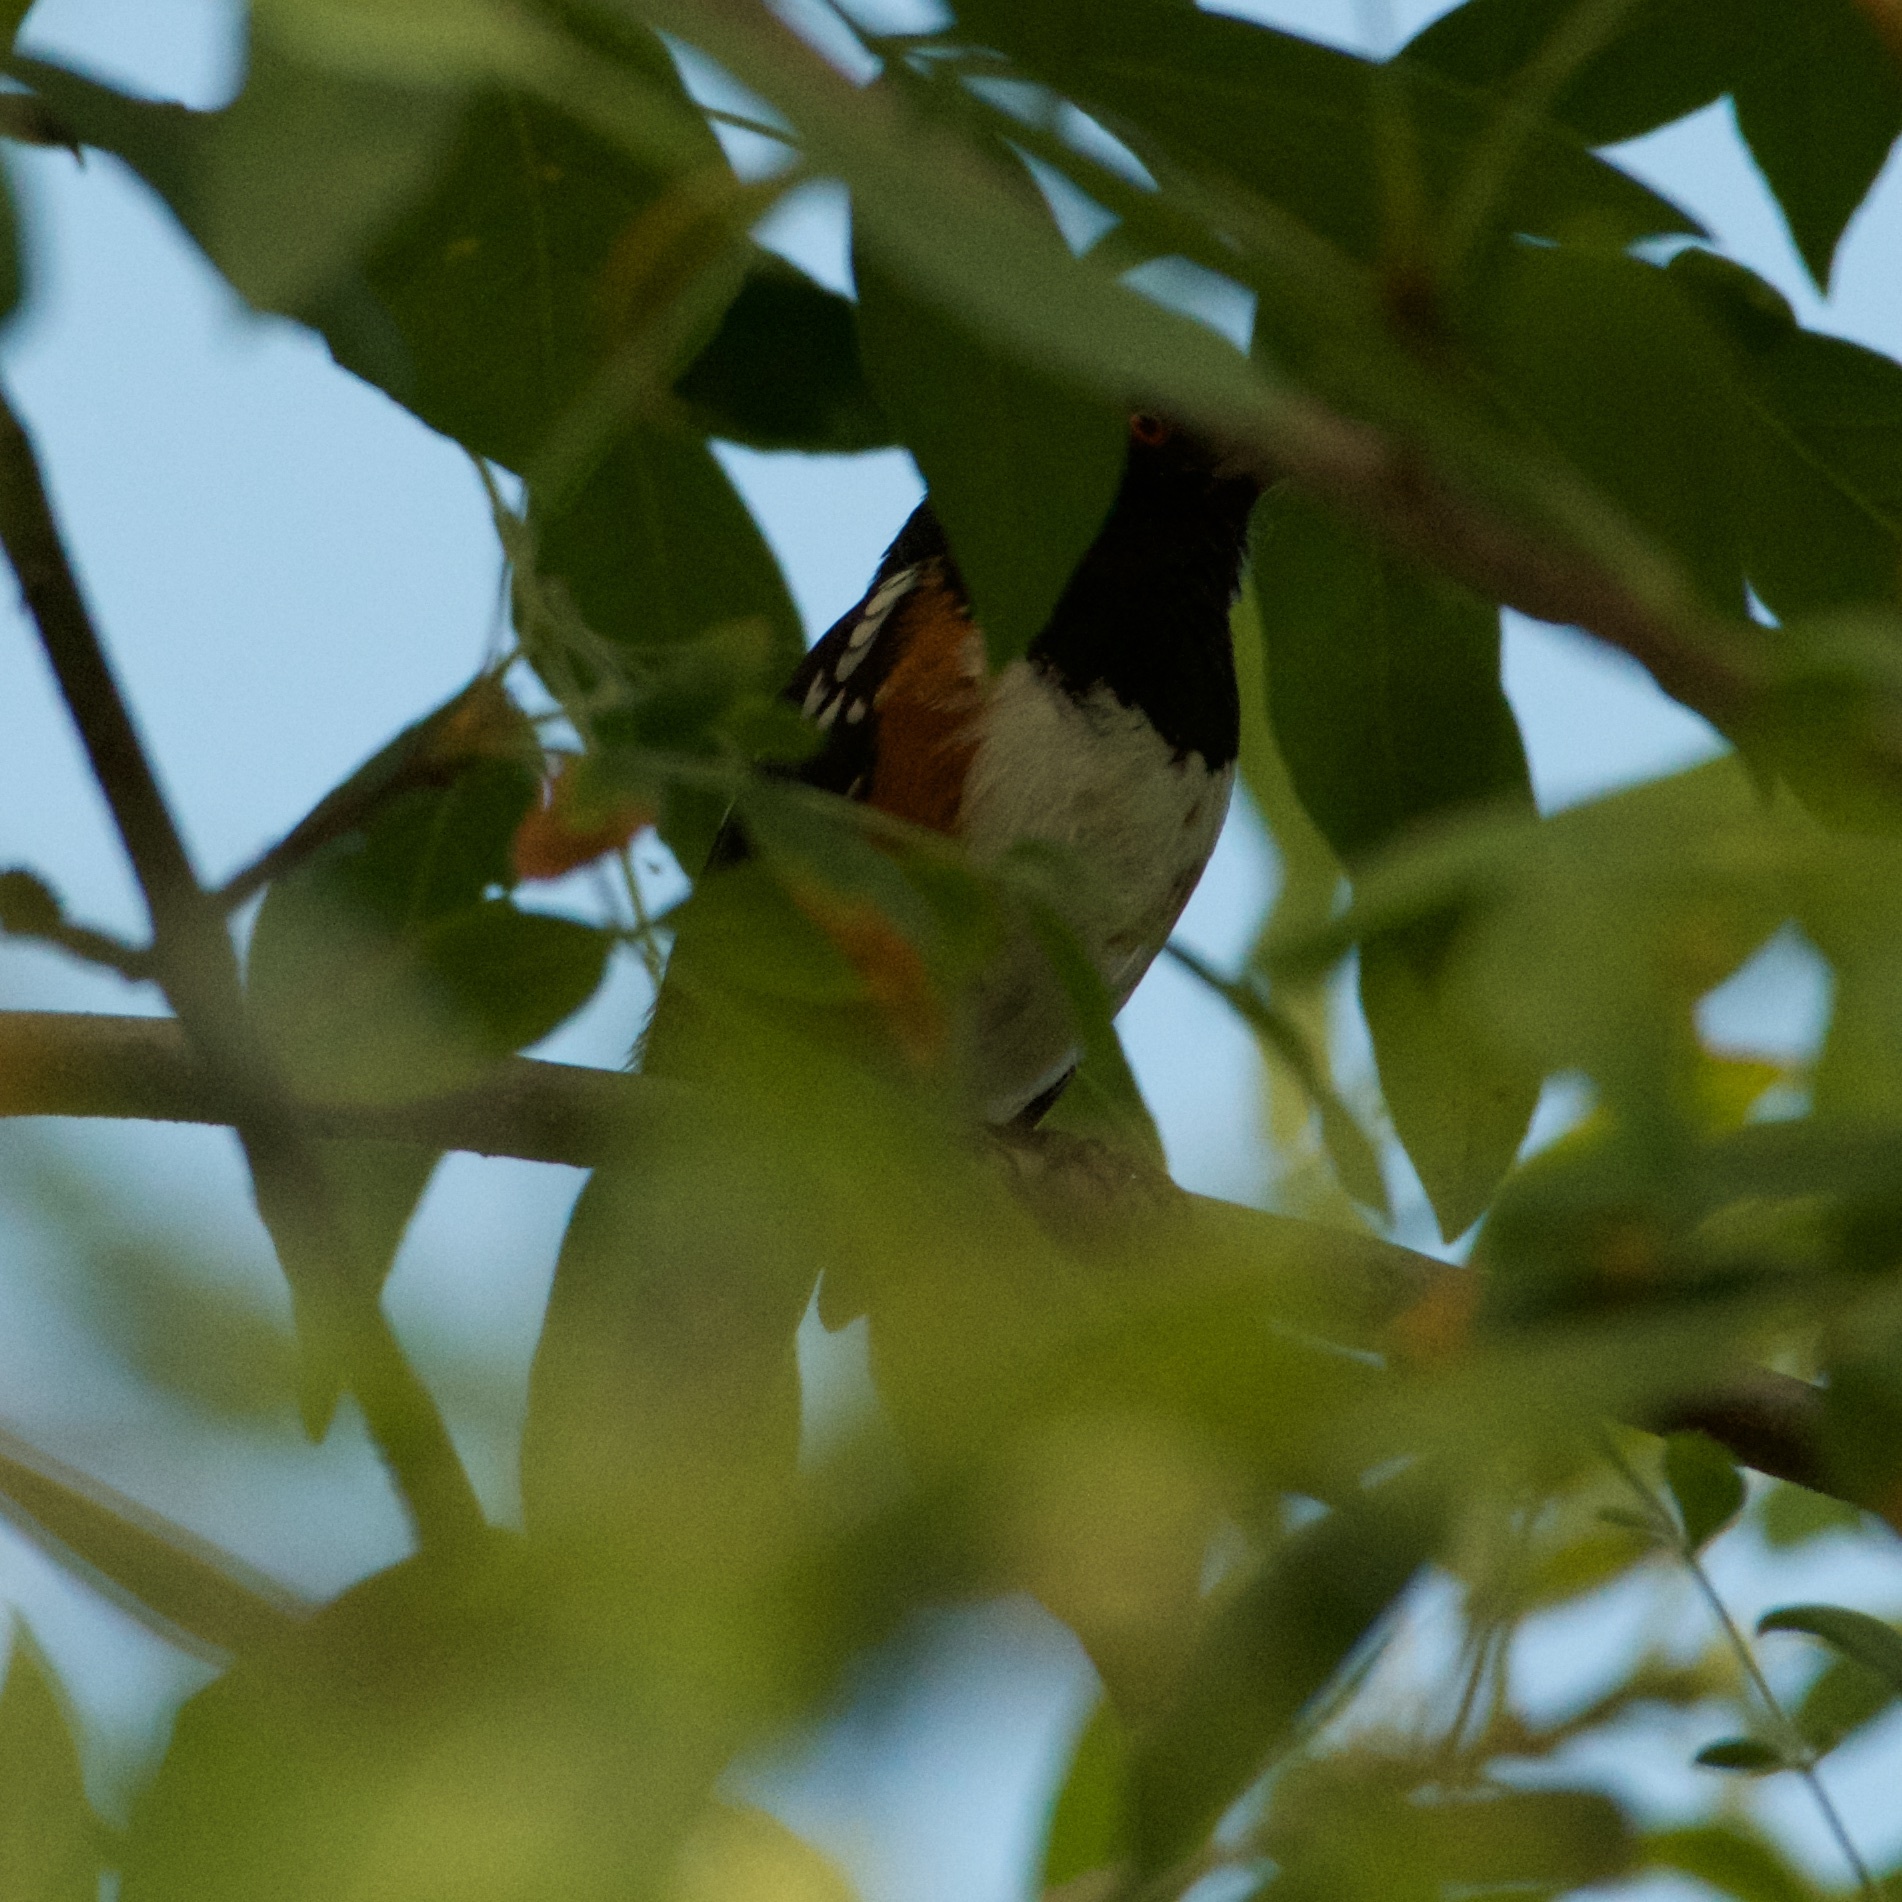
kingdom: Animalia
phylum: Chordata
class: Aves
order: Passeriformes
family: Passerellidae
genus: Pipilo
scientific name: Pipilo maculatus
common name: Spotted towhee
